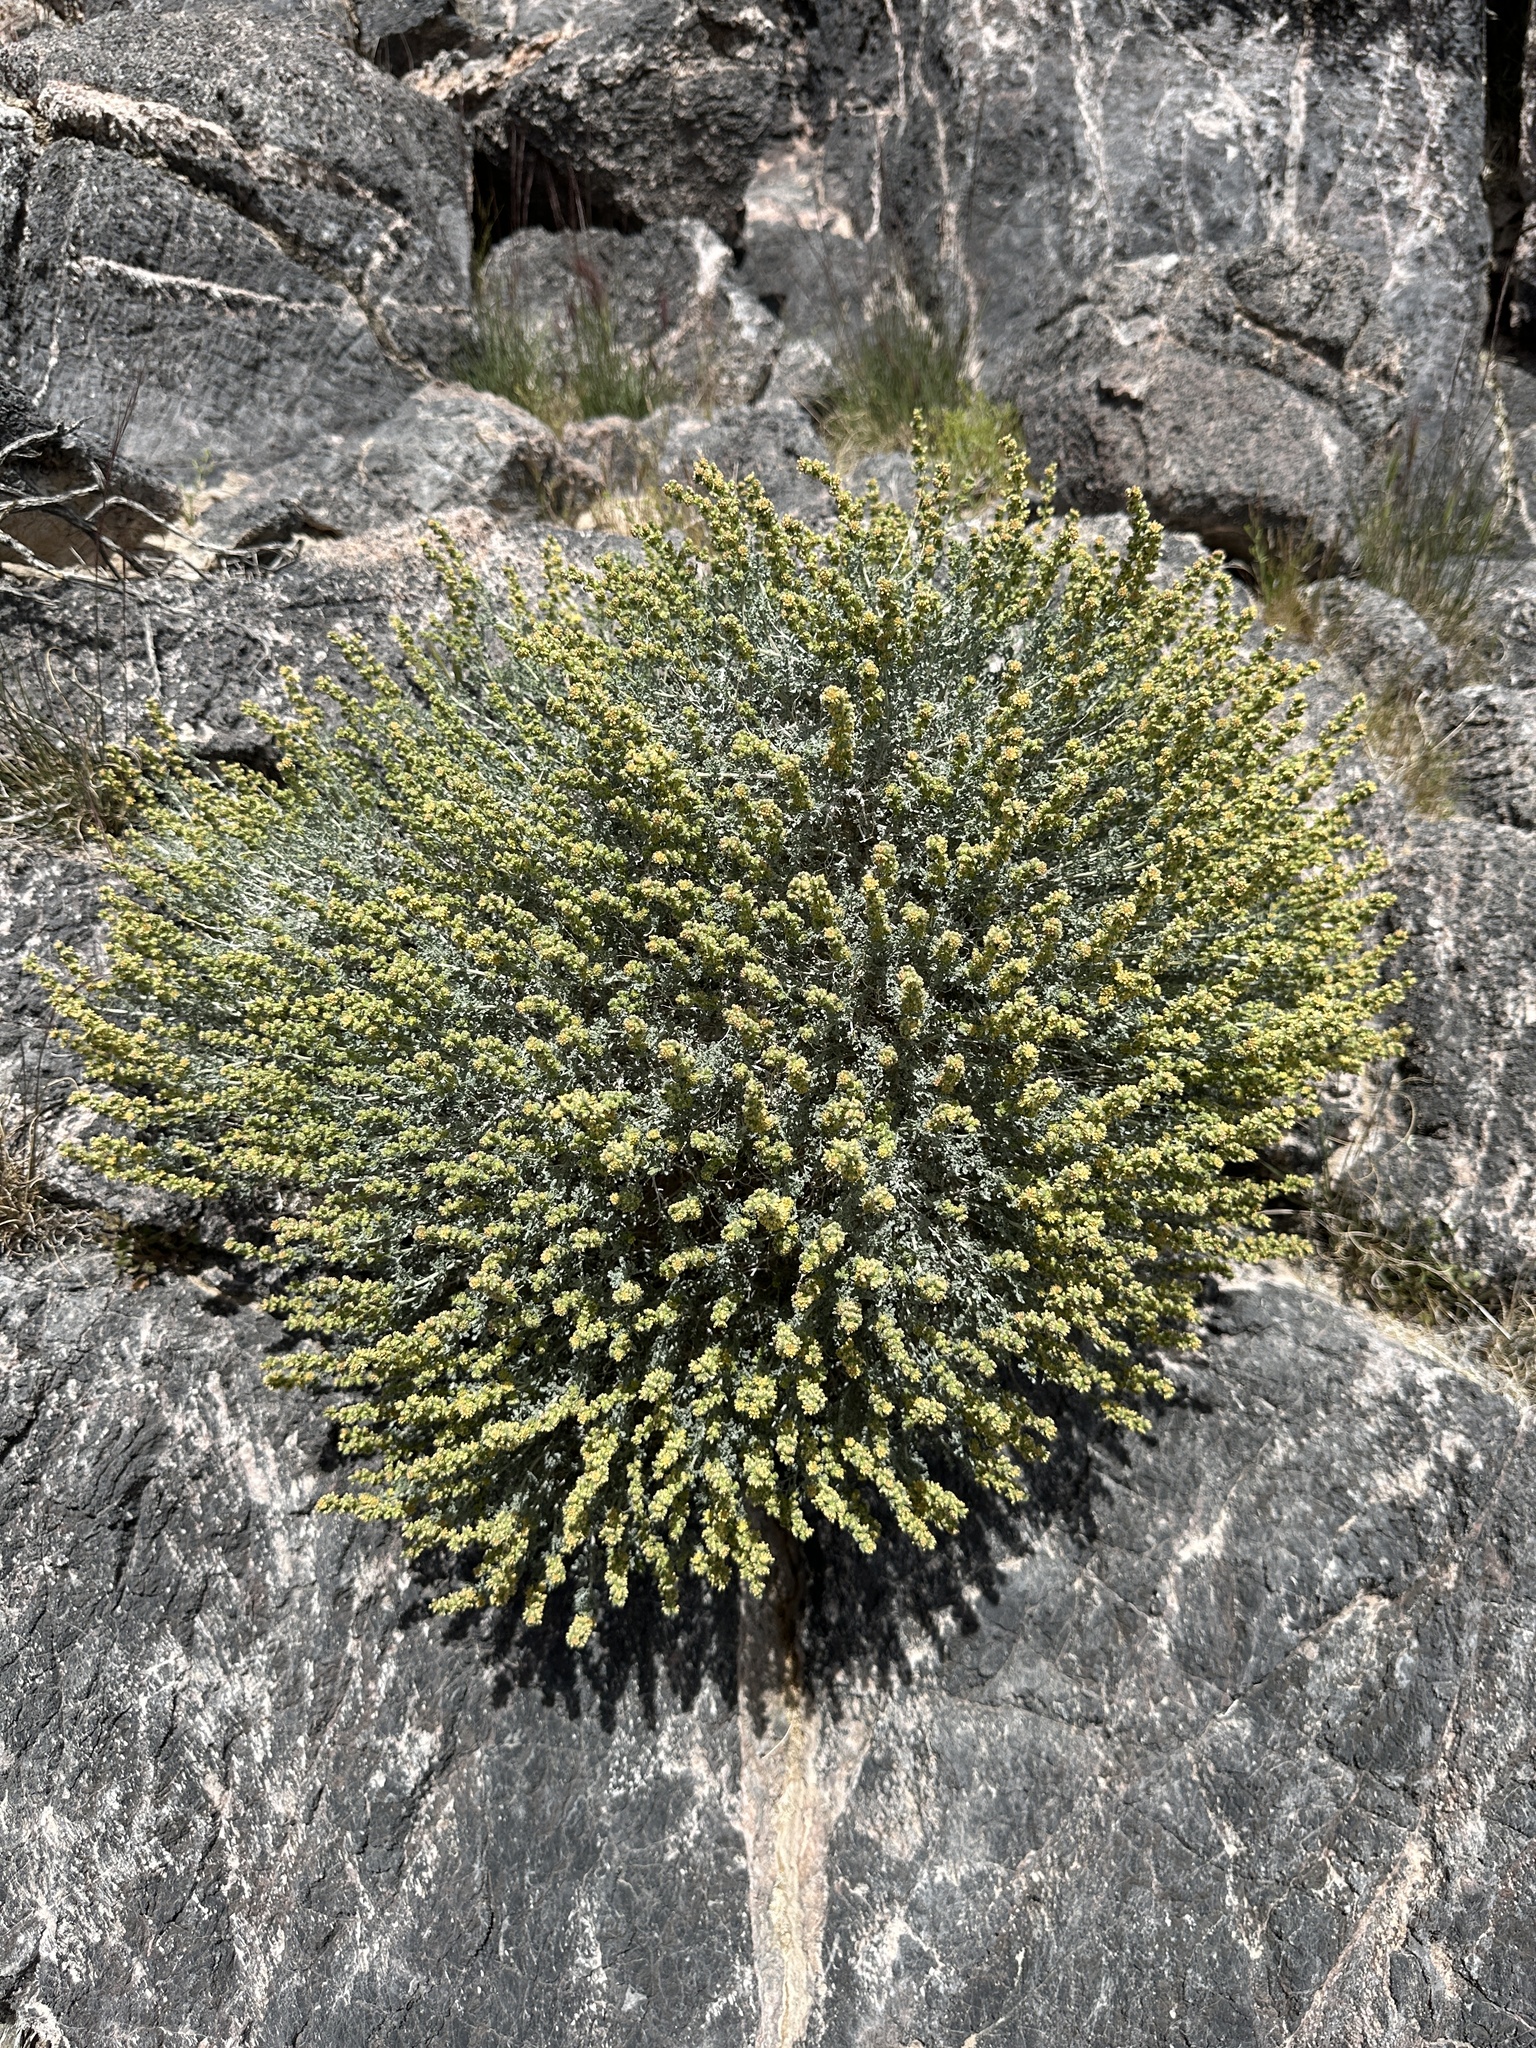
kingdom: Plantae
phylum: Tracheophyta
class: Magnoliopsida
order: Asterales
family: Asteraceae
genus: Ambrosia
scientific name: Ambrosia dumosa
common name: Bur-sage
